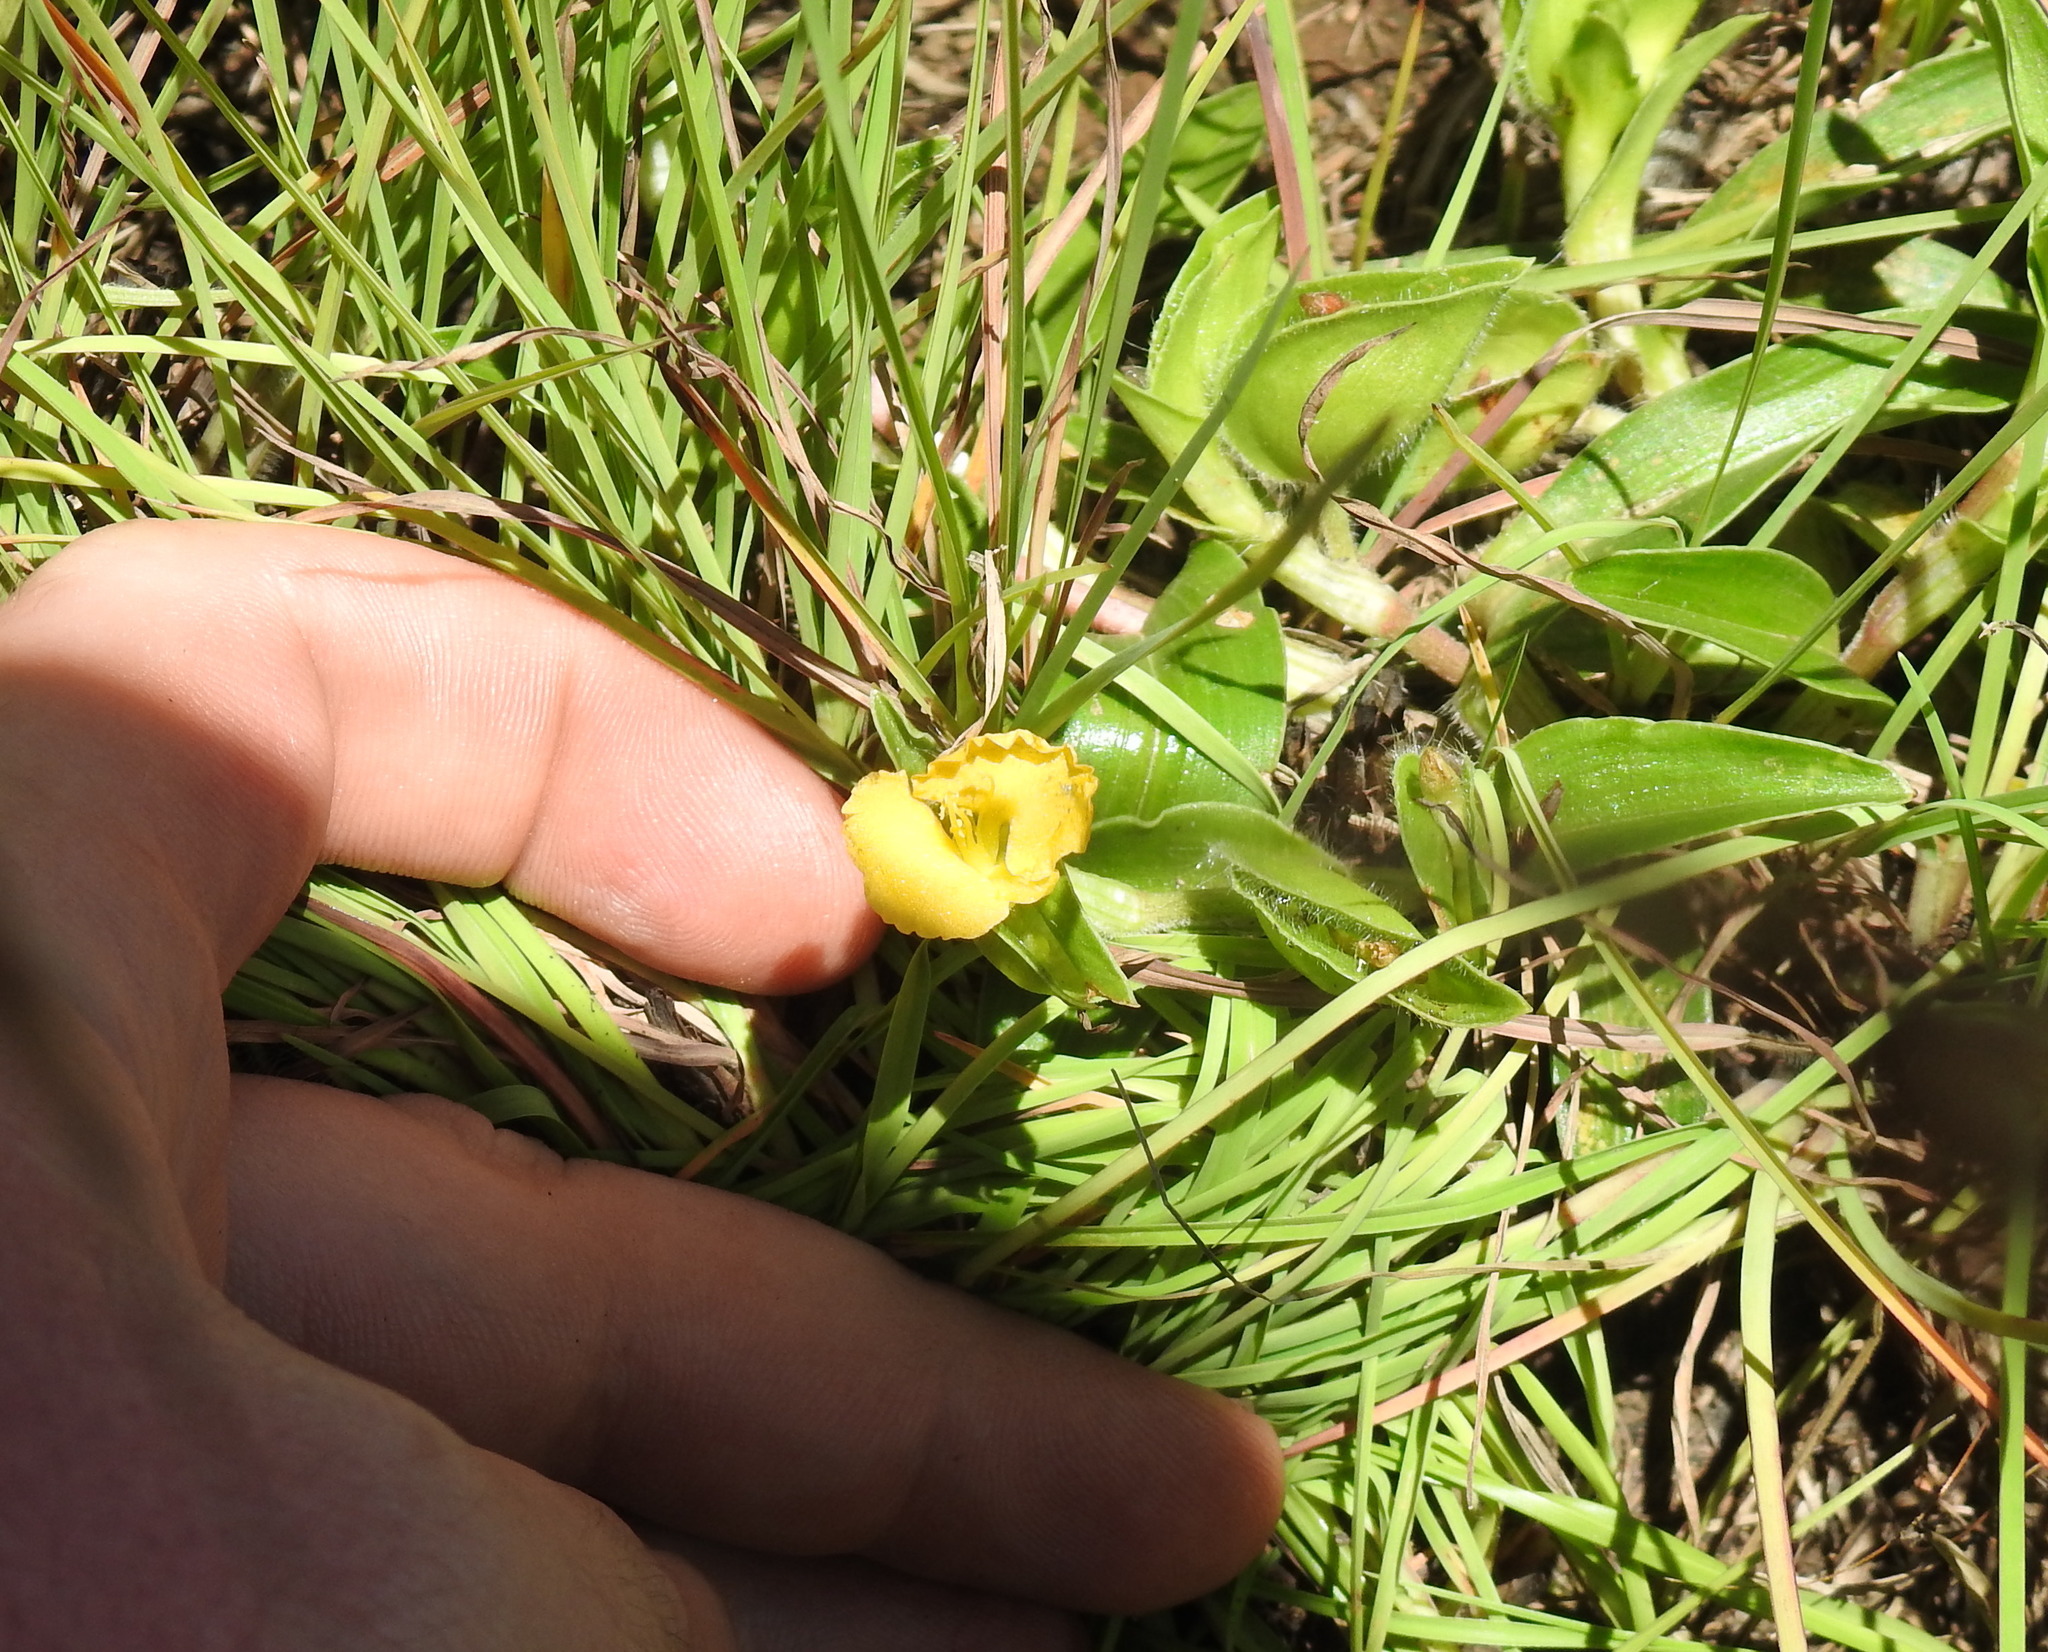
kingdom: Plantae
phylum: Tracheophyta
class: Liliopsida
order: Commelinales
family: Commelinaceae
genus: Commelina
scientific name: Commelina africana
